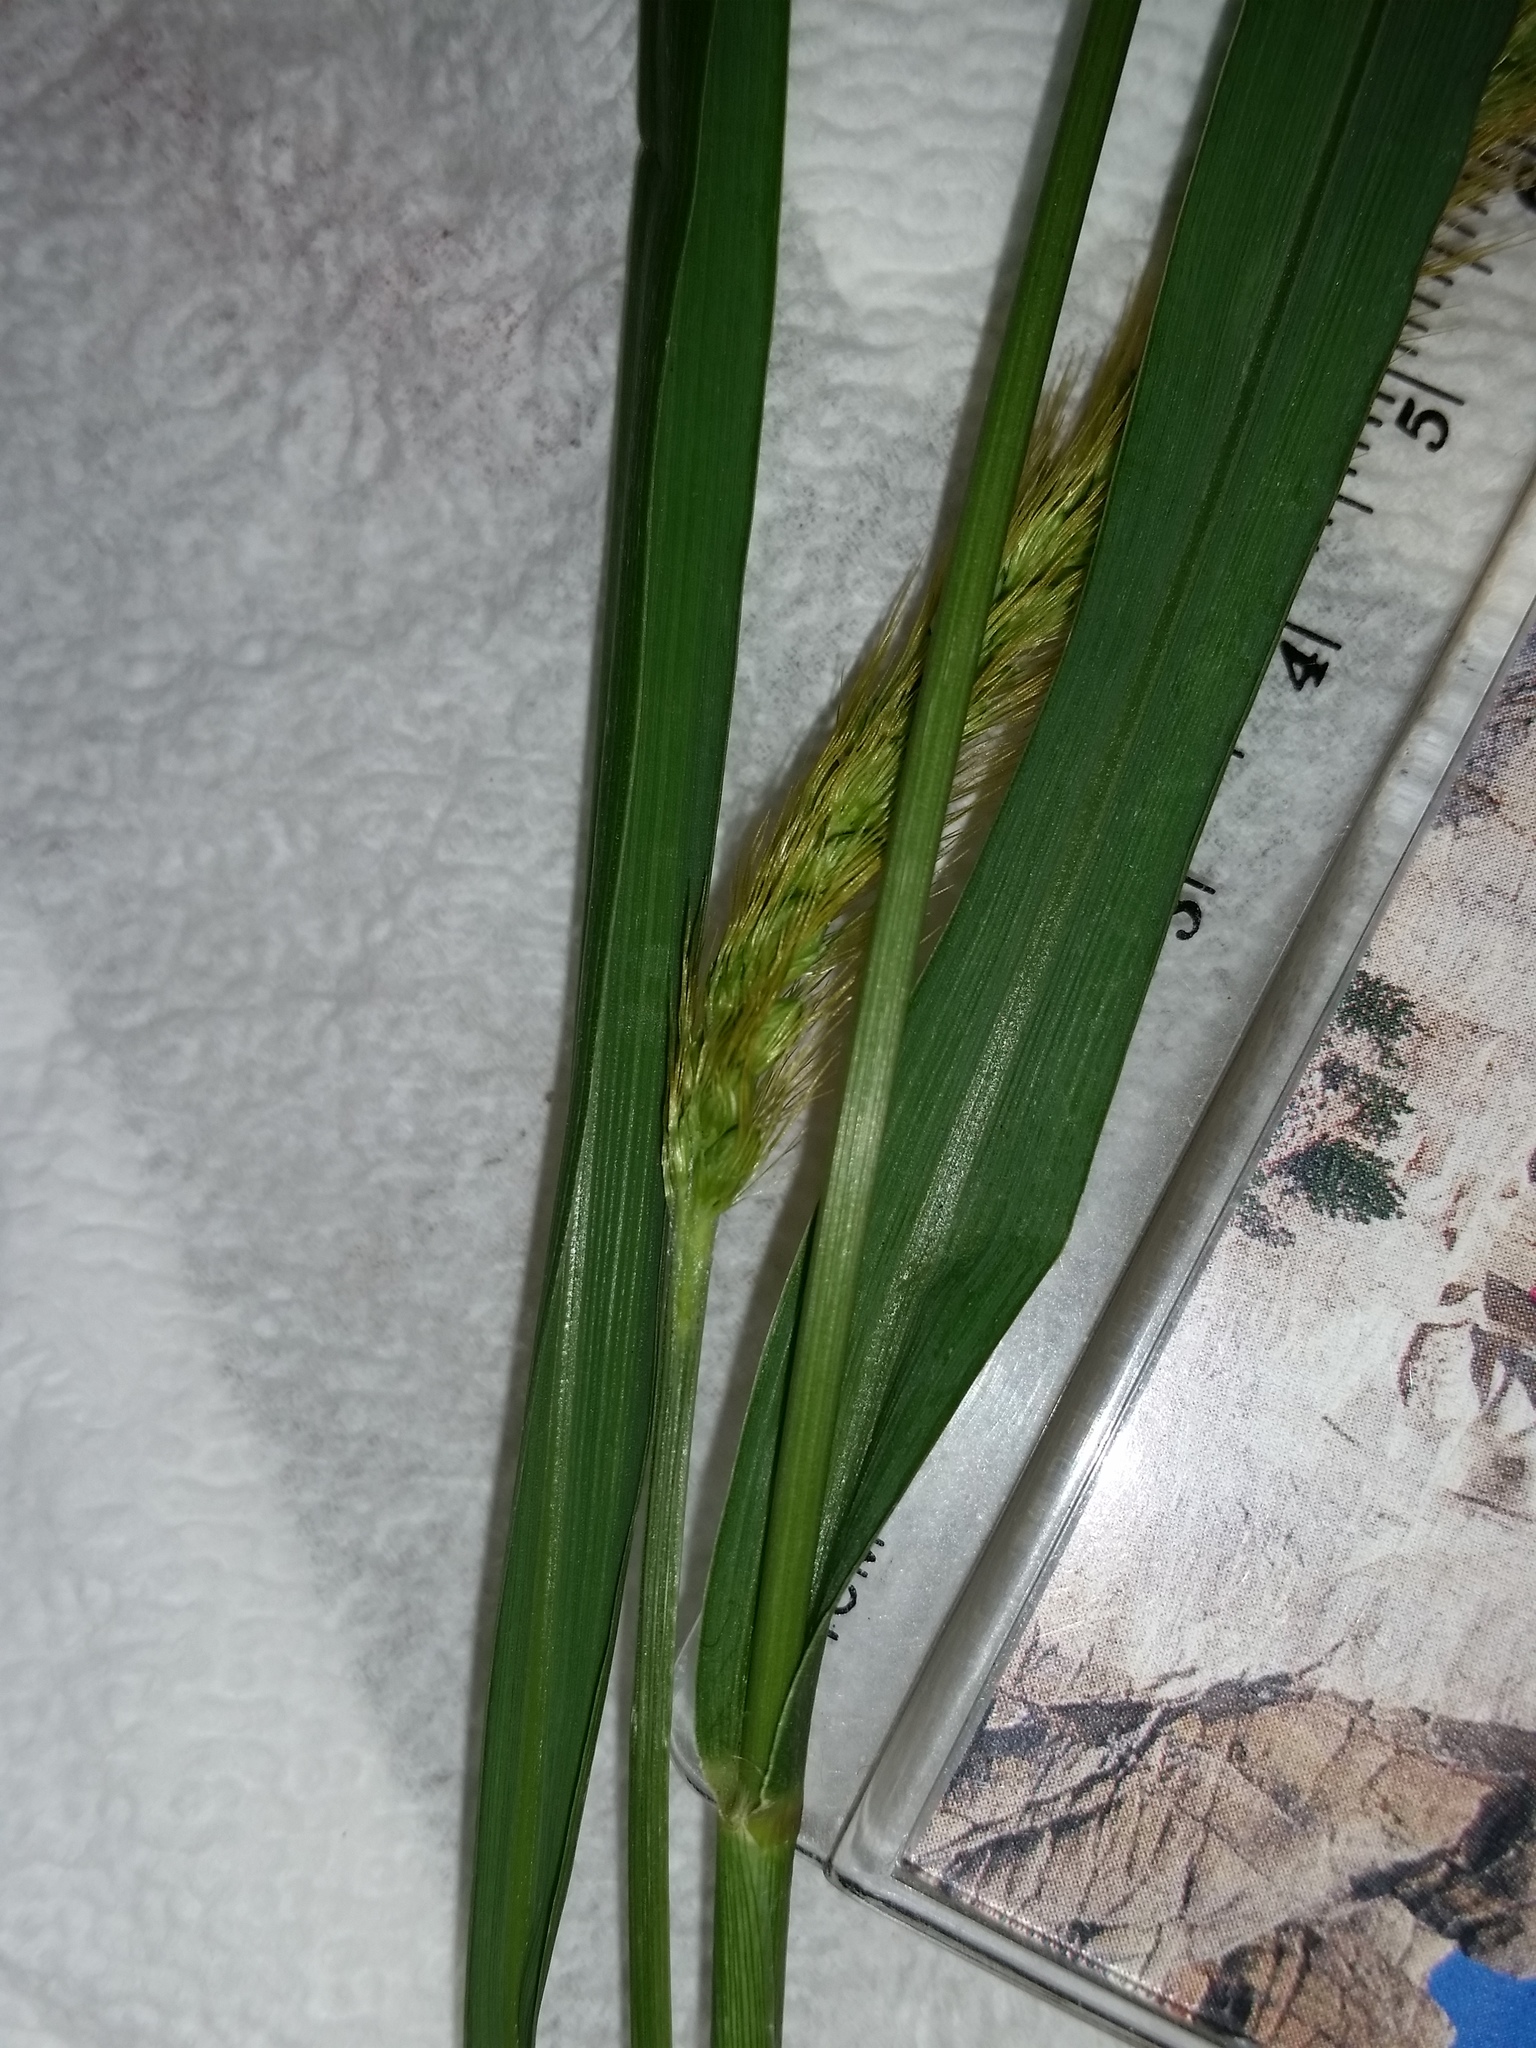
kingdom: Plantae
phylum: Tracheophyta
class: Liliopsida
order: Poales
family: Poaceae
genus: Setaria
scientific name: Setaria pumila
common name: Yellow bristle-grass
